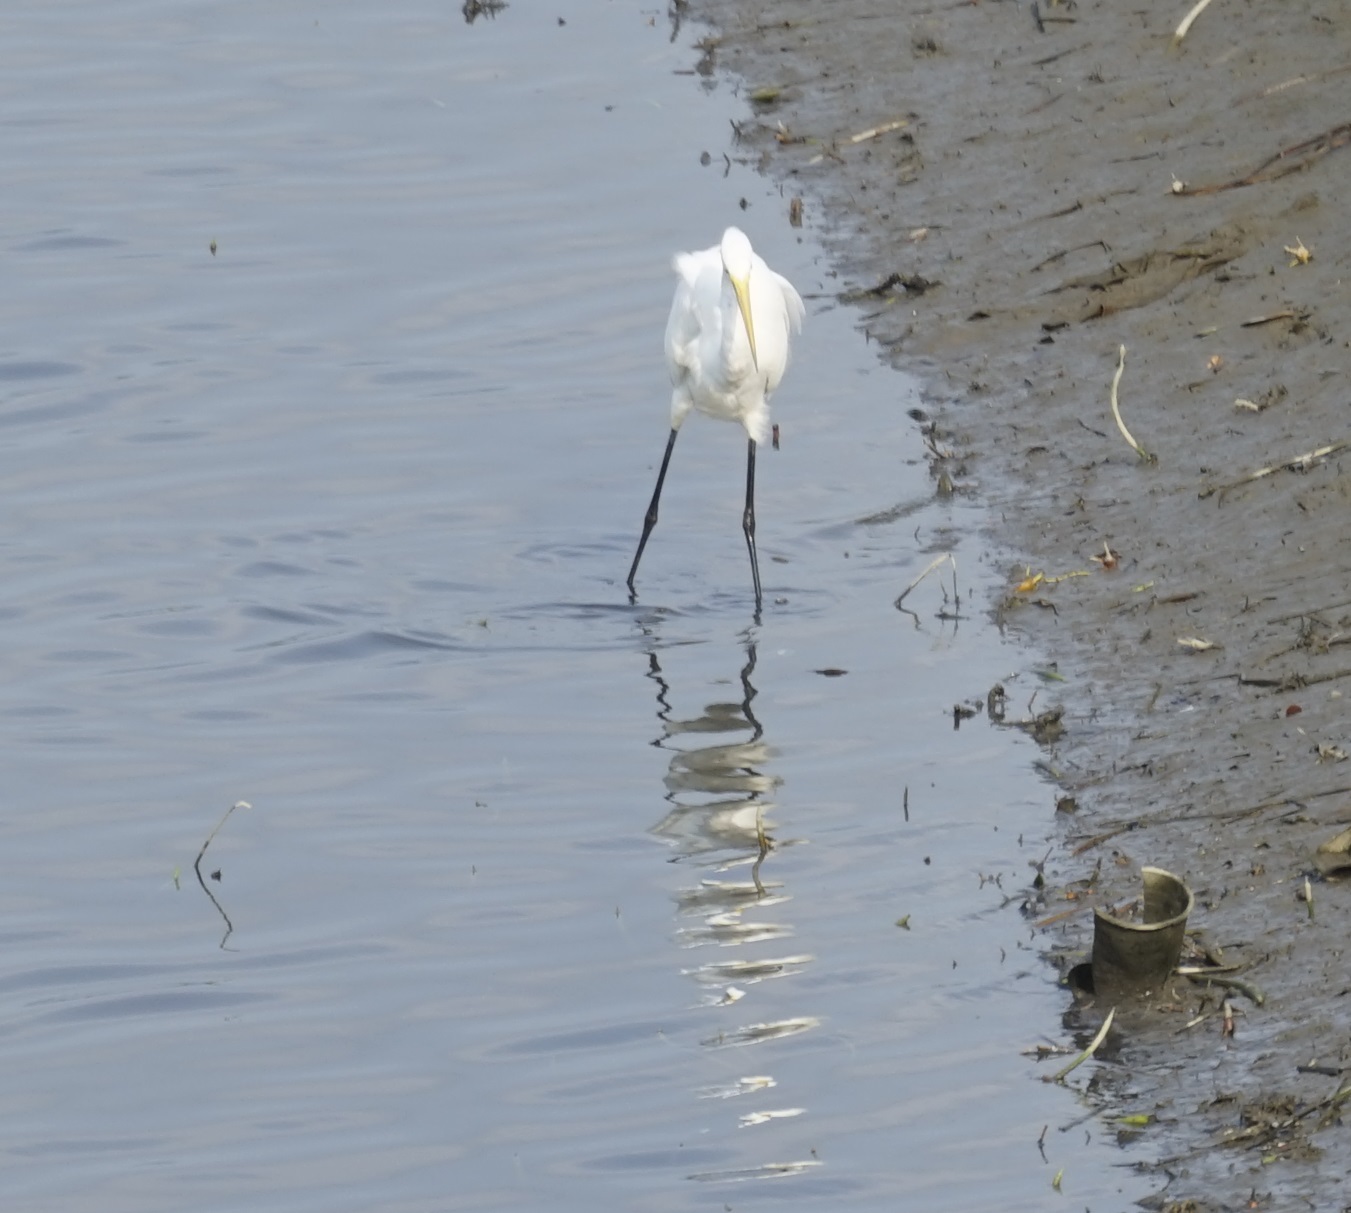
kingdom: Animalia
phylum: Chordata
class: Aves
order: Pelecaniformes
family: Ardeidae
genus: Ardea
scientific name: Ardea alba
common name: Great egret
